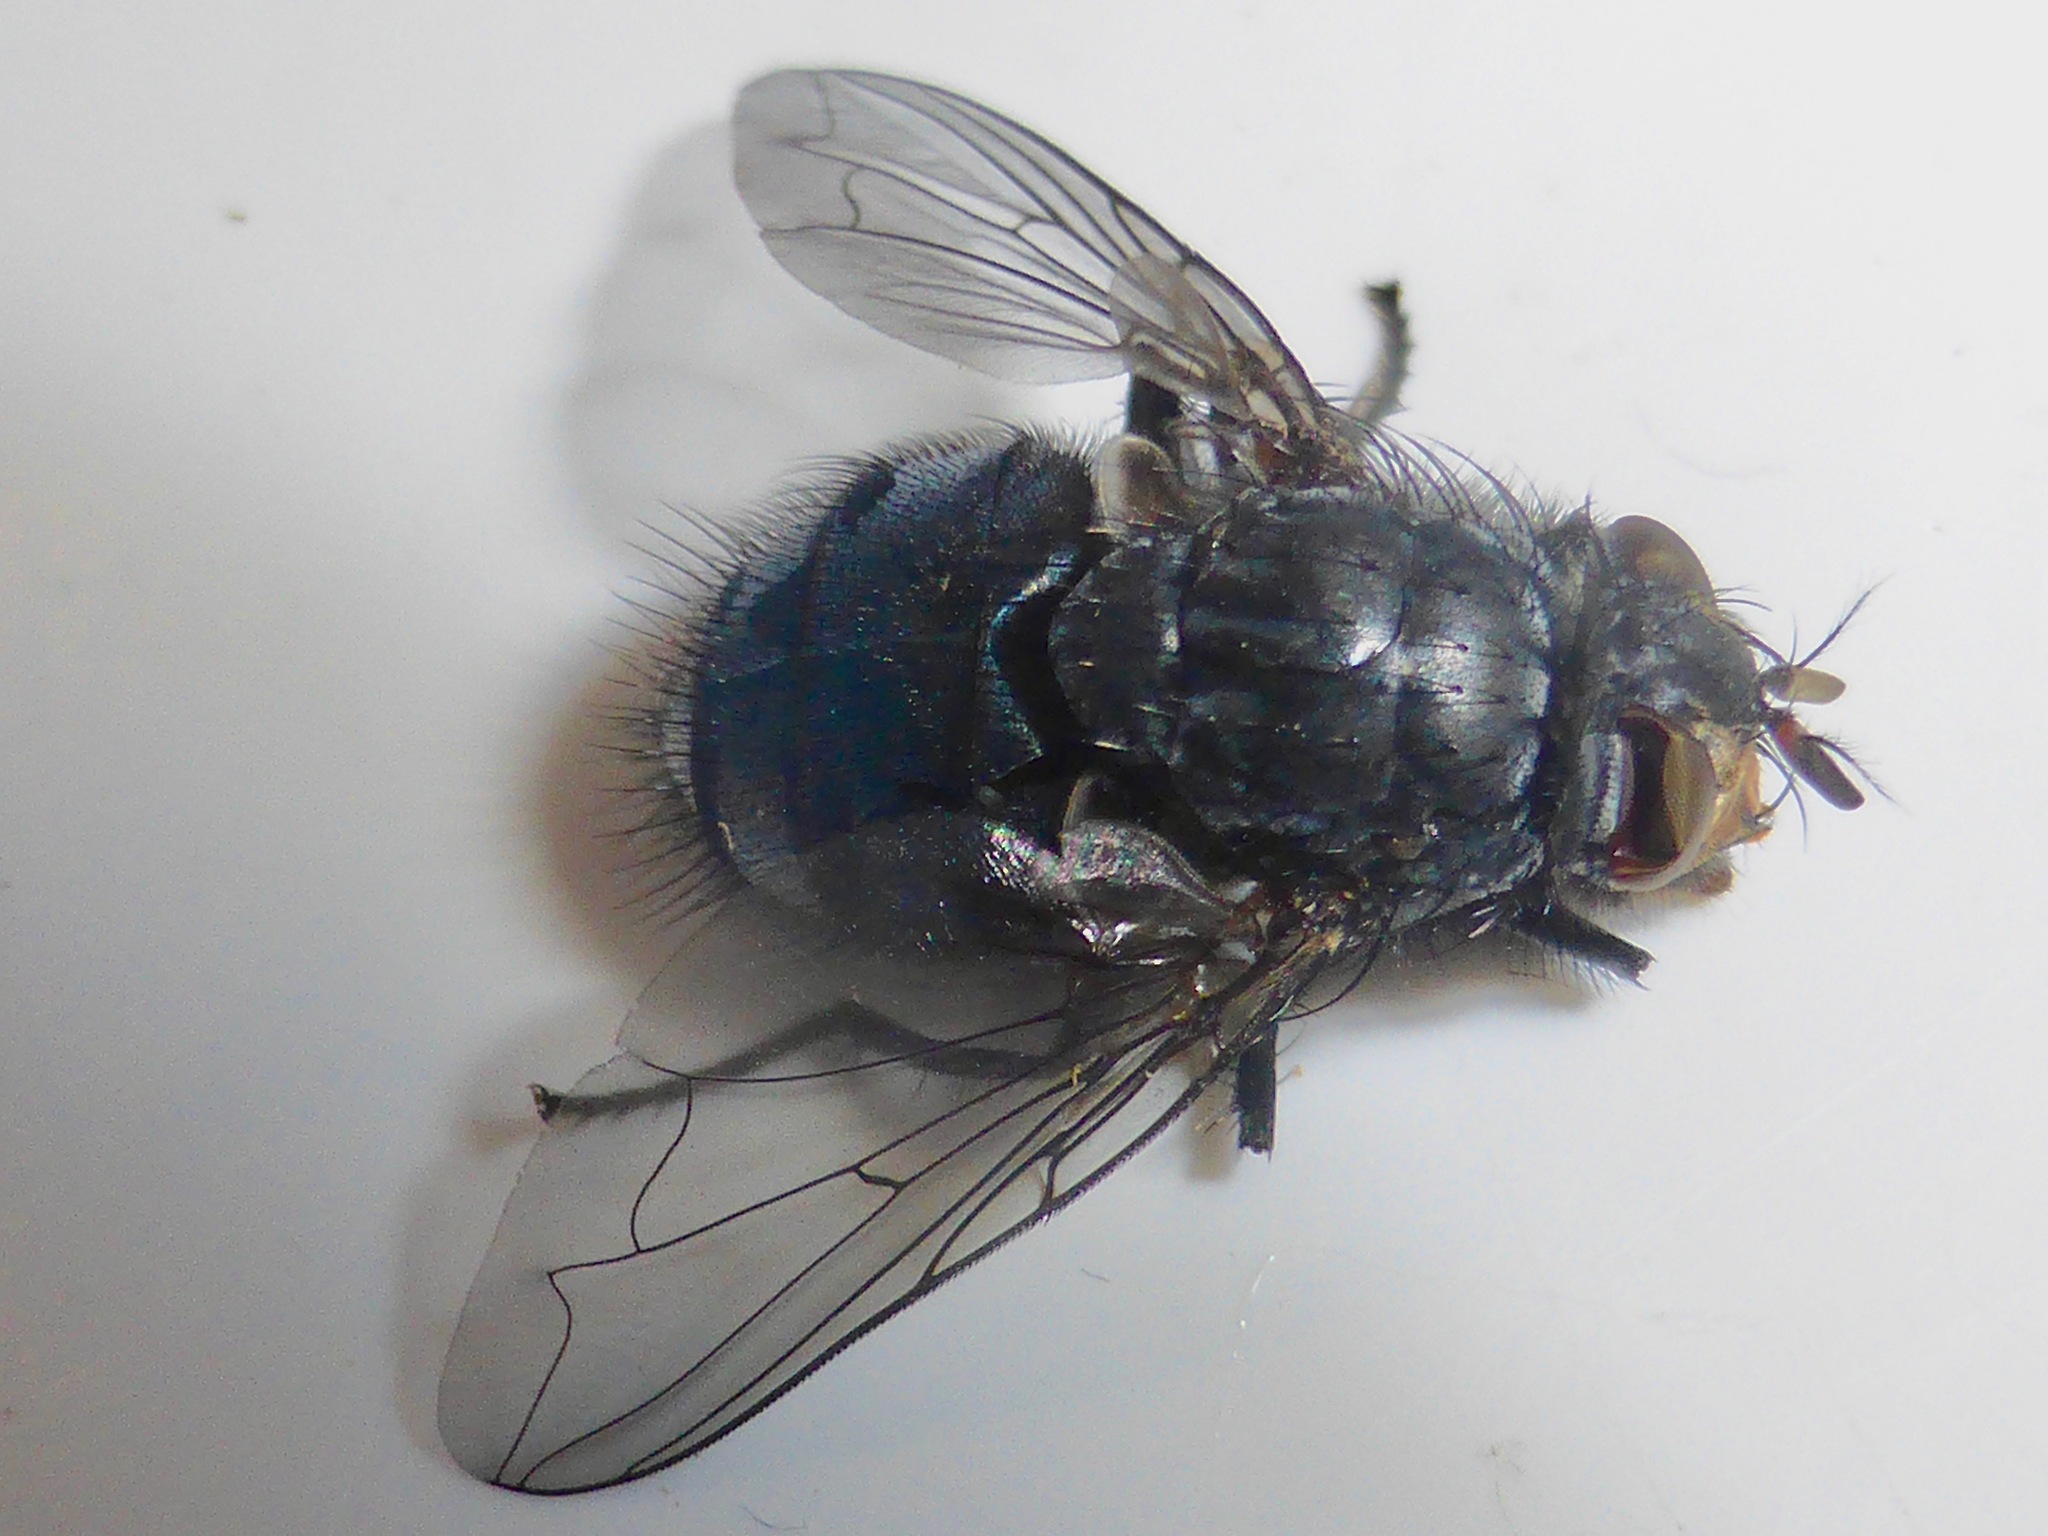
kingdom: Animalia
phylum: Arthropoda
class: Insecta
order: Diptera
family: Calliphoridae
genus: Calliphora
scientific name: Calliphora vicina
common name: Common blow flie
